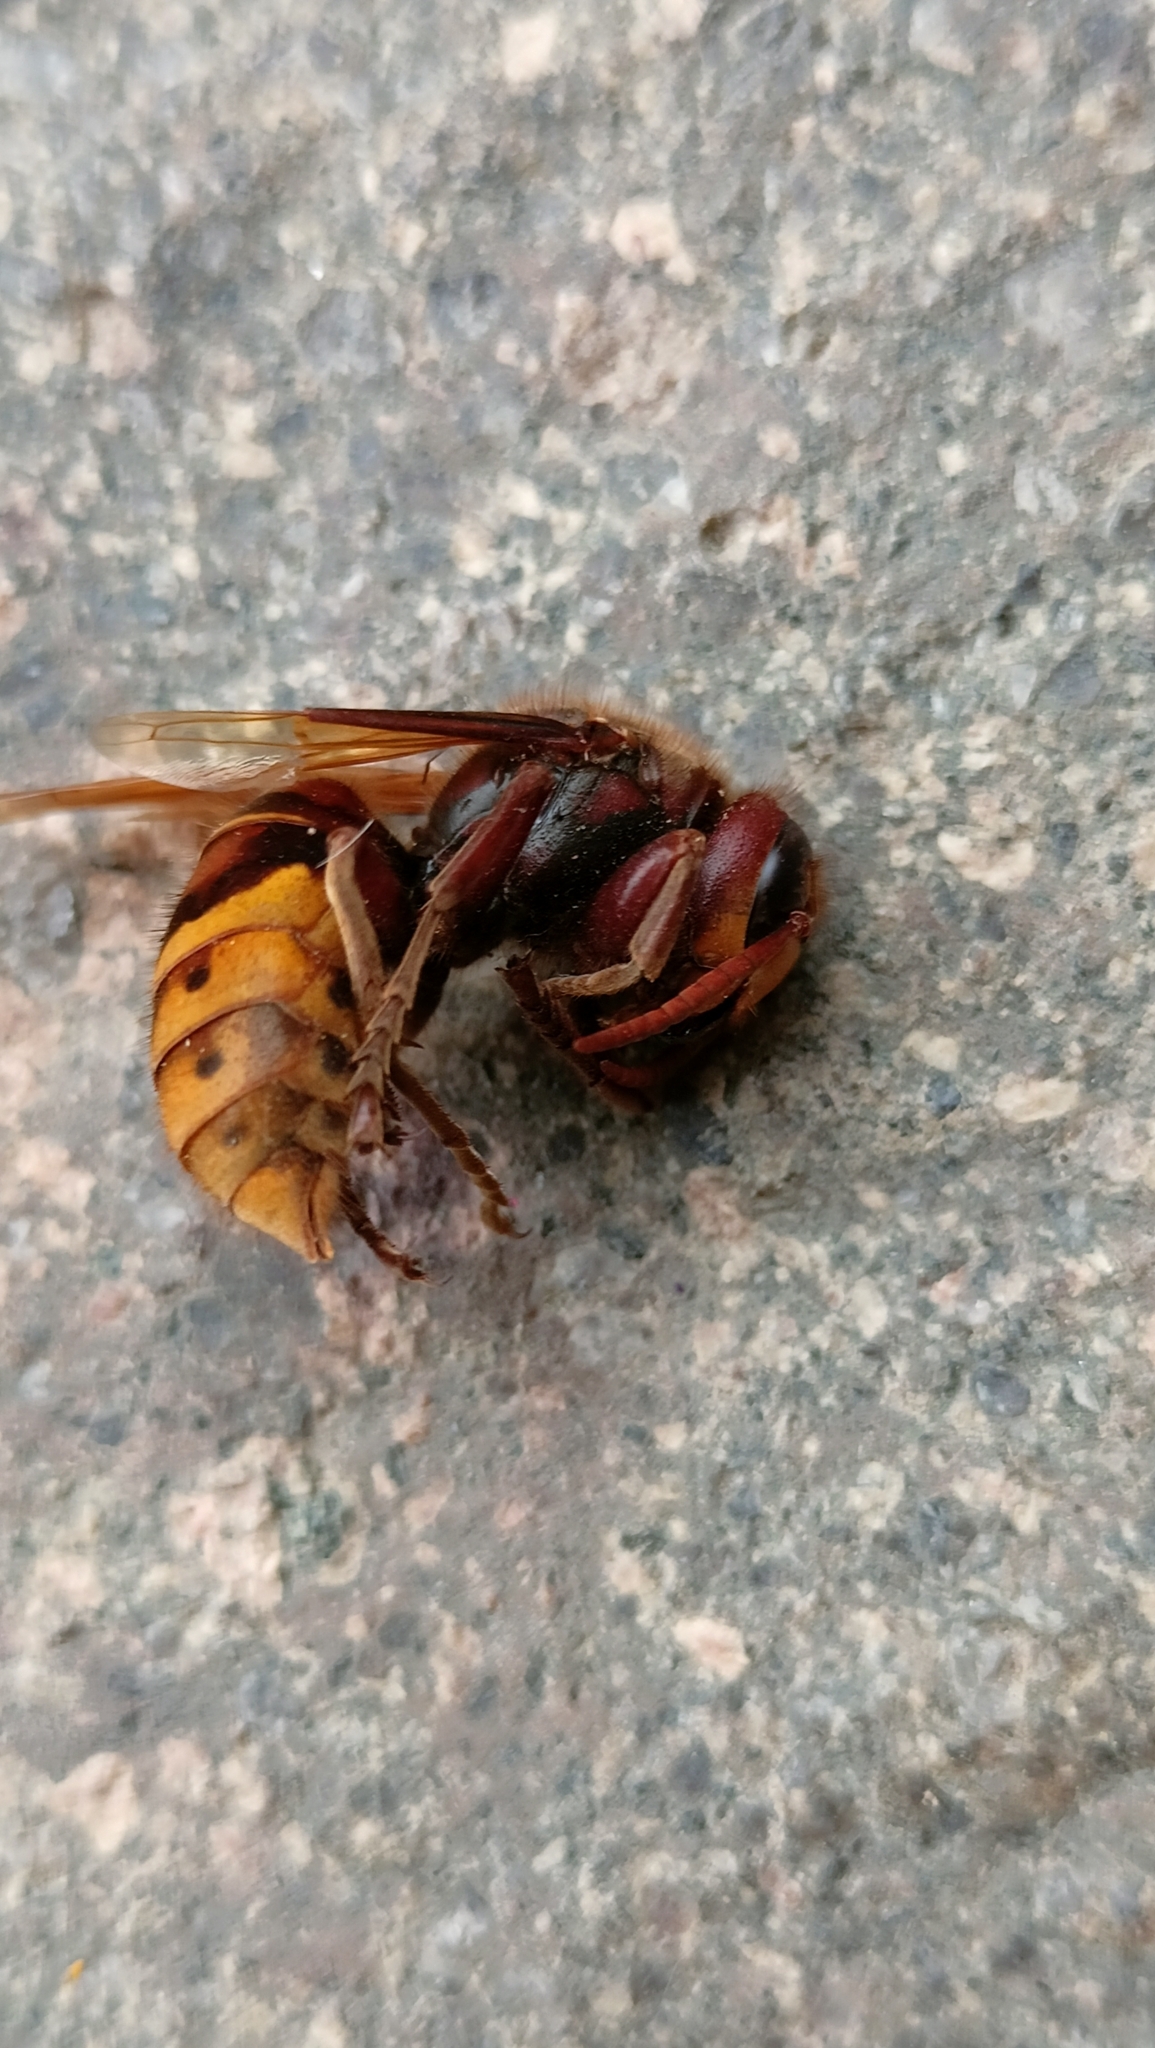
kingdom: Animalia
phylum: Arthropoda
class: Insecta
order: Hymenoptera
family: Vespidae
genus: Vespa
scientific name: Vespa crabro
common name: Hornet
